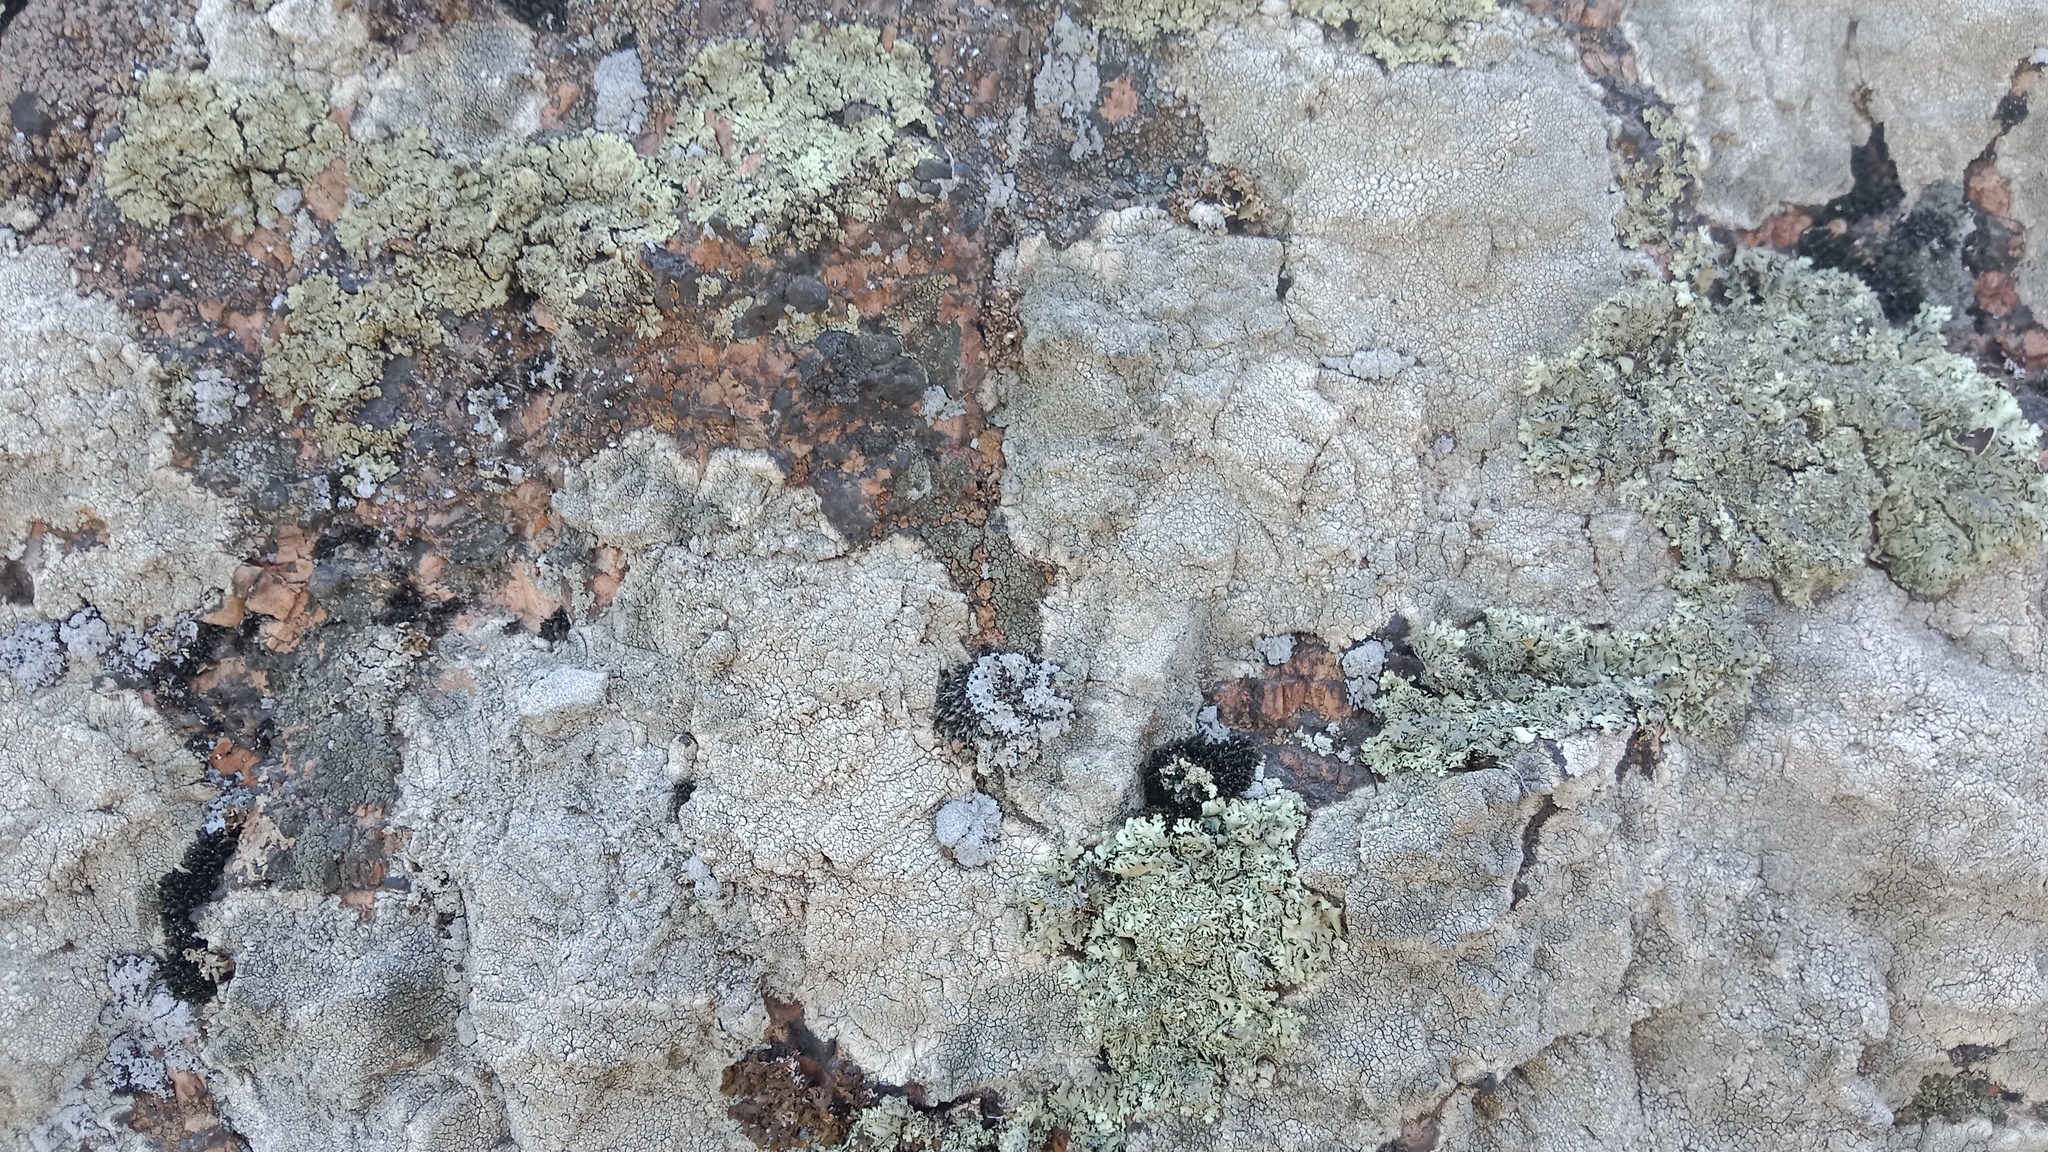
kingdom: Fungi
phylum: Ascomycota
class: Lecanoromycetes
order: Pertusariales
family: Megasporaceae
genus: Aspiciliella
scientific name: Aspiciliella intermutans
